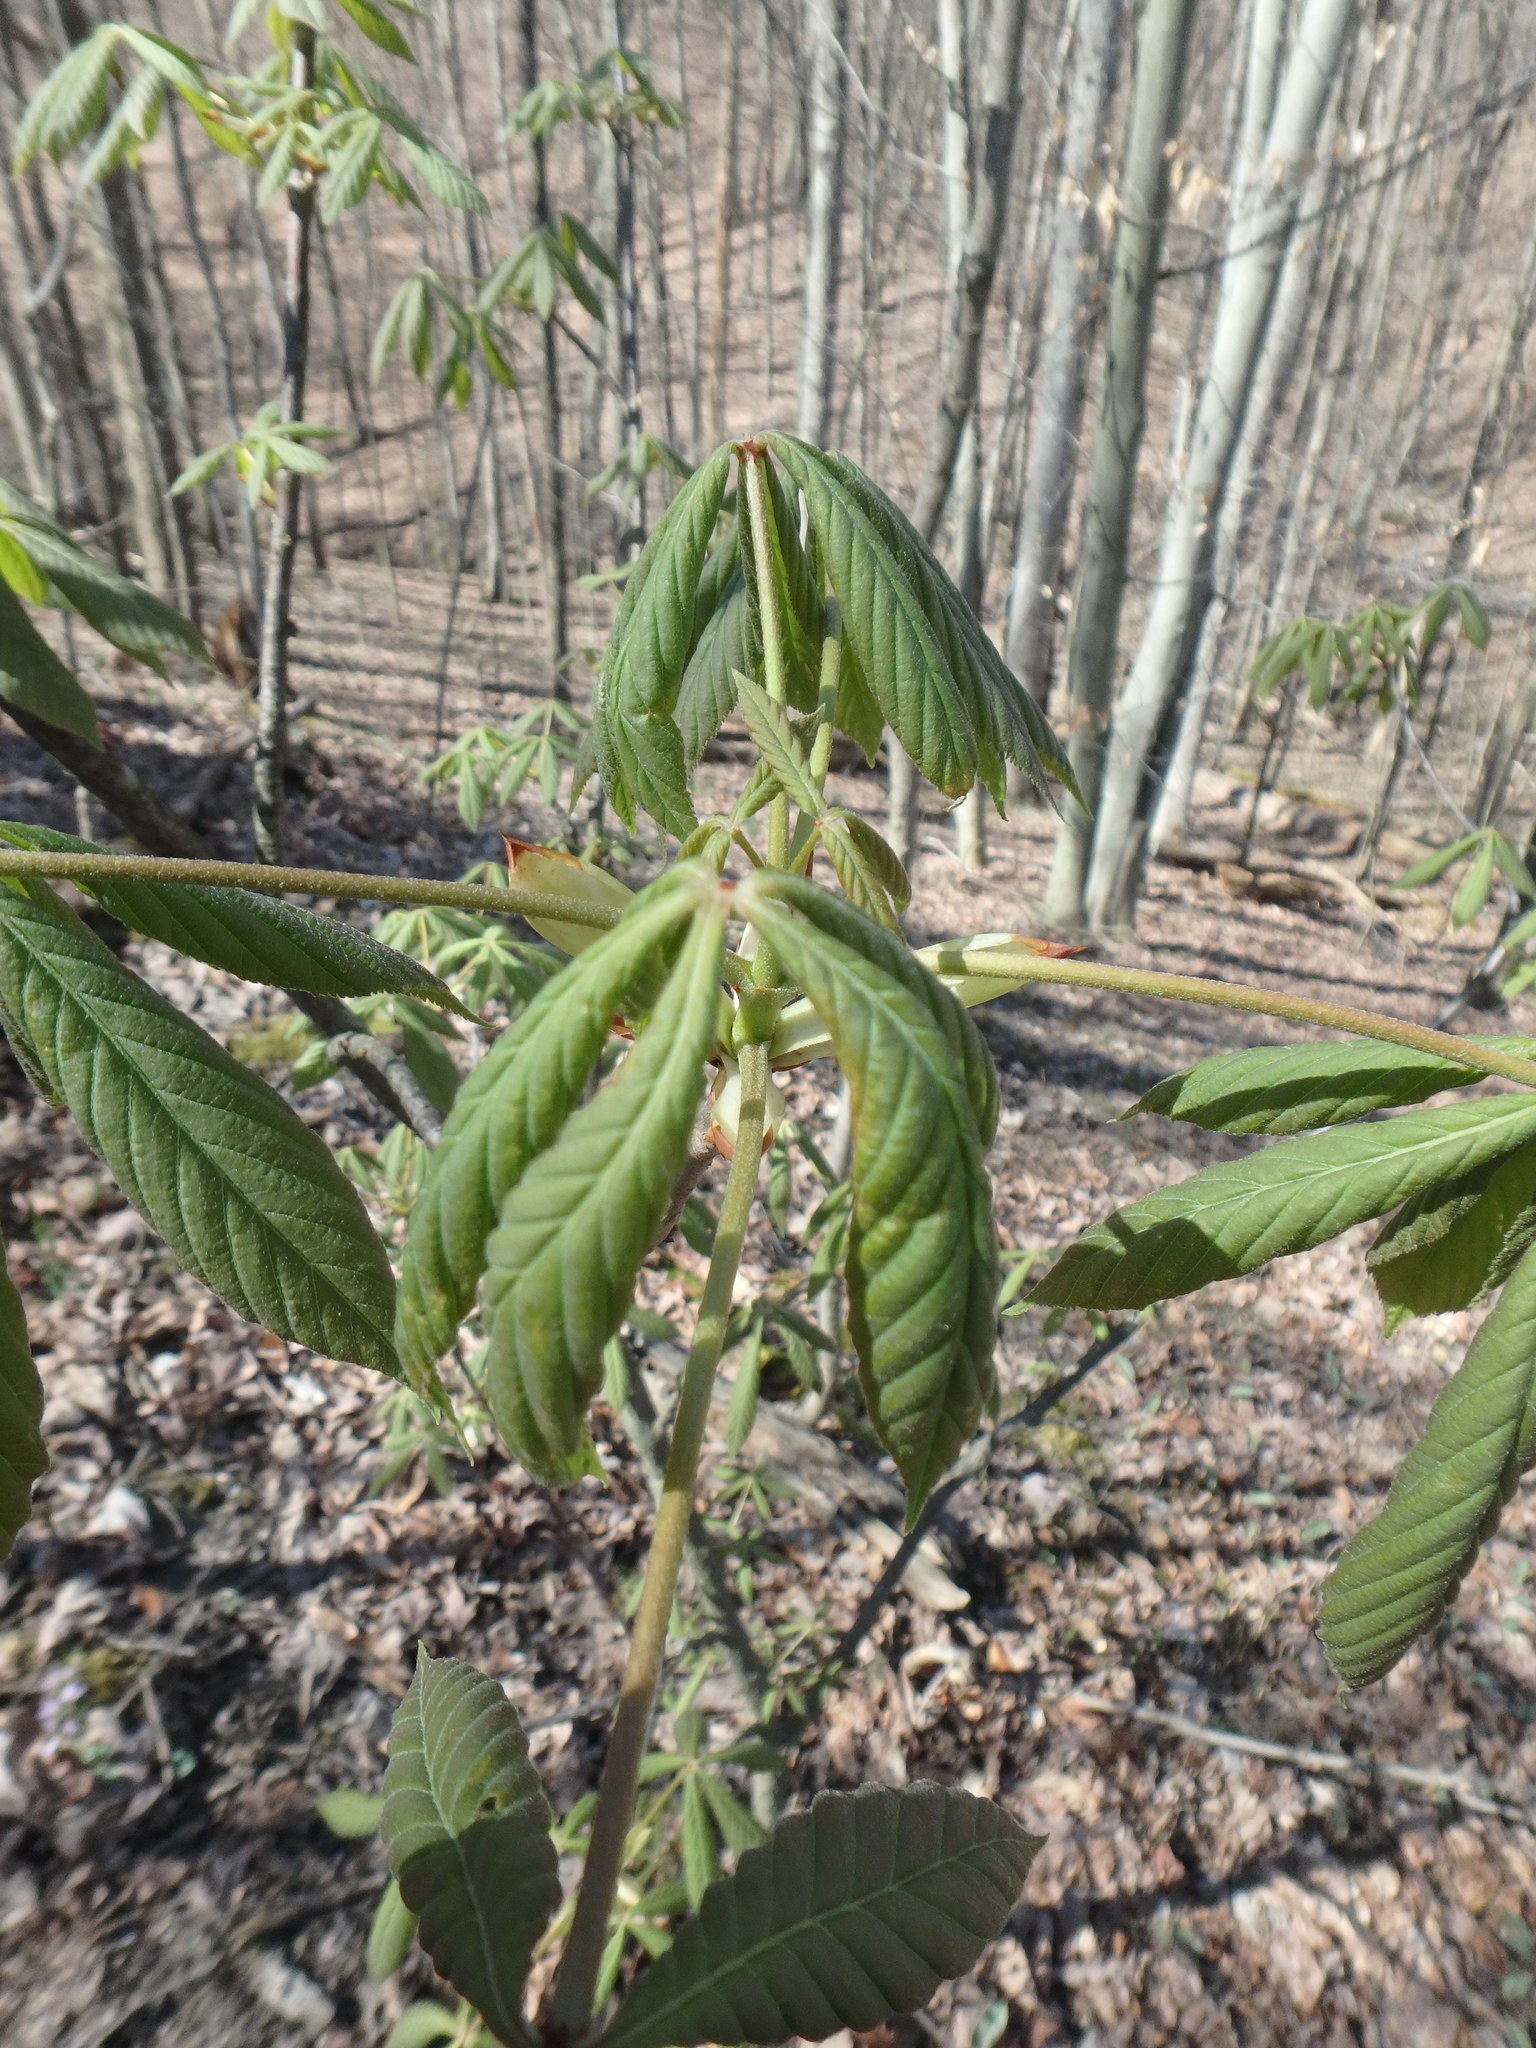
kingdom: Plantae
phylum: Tracheophyta
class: Magnoliopsida
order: Sapindales
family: Sapindaceae
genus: Aesculus
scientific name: Aesculus glabra
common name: Ohio buckeye
